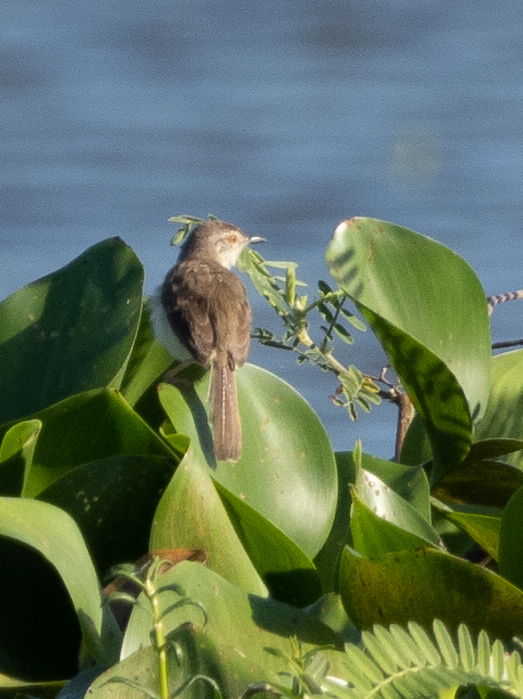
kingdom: Animalia
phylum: Chordata
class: Aves
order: Passeriformes
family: Cisticolidae
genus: Prinia
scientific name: Prinia inornata
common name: Plain prinia
